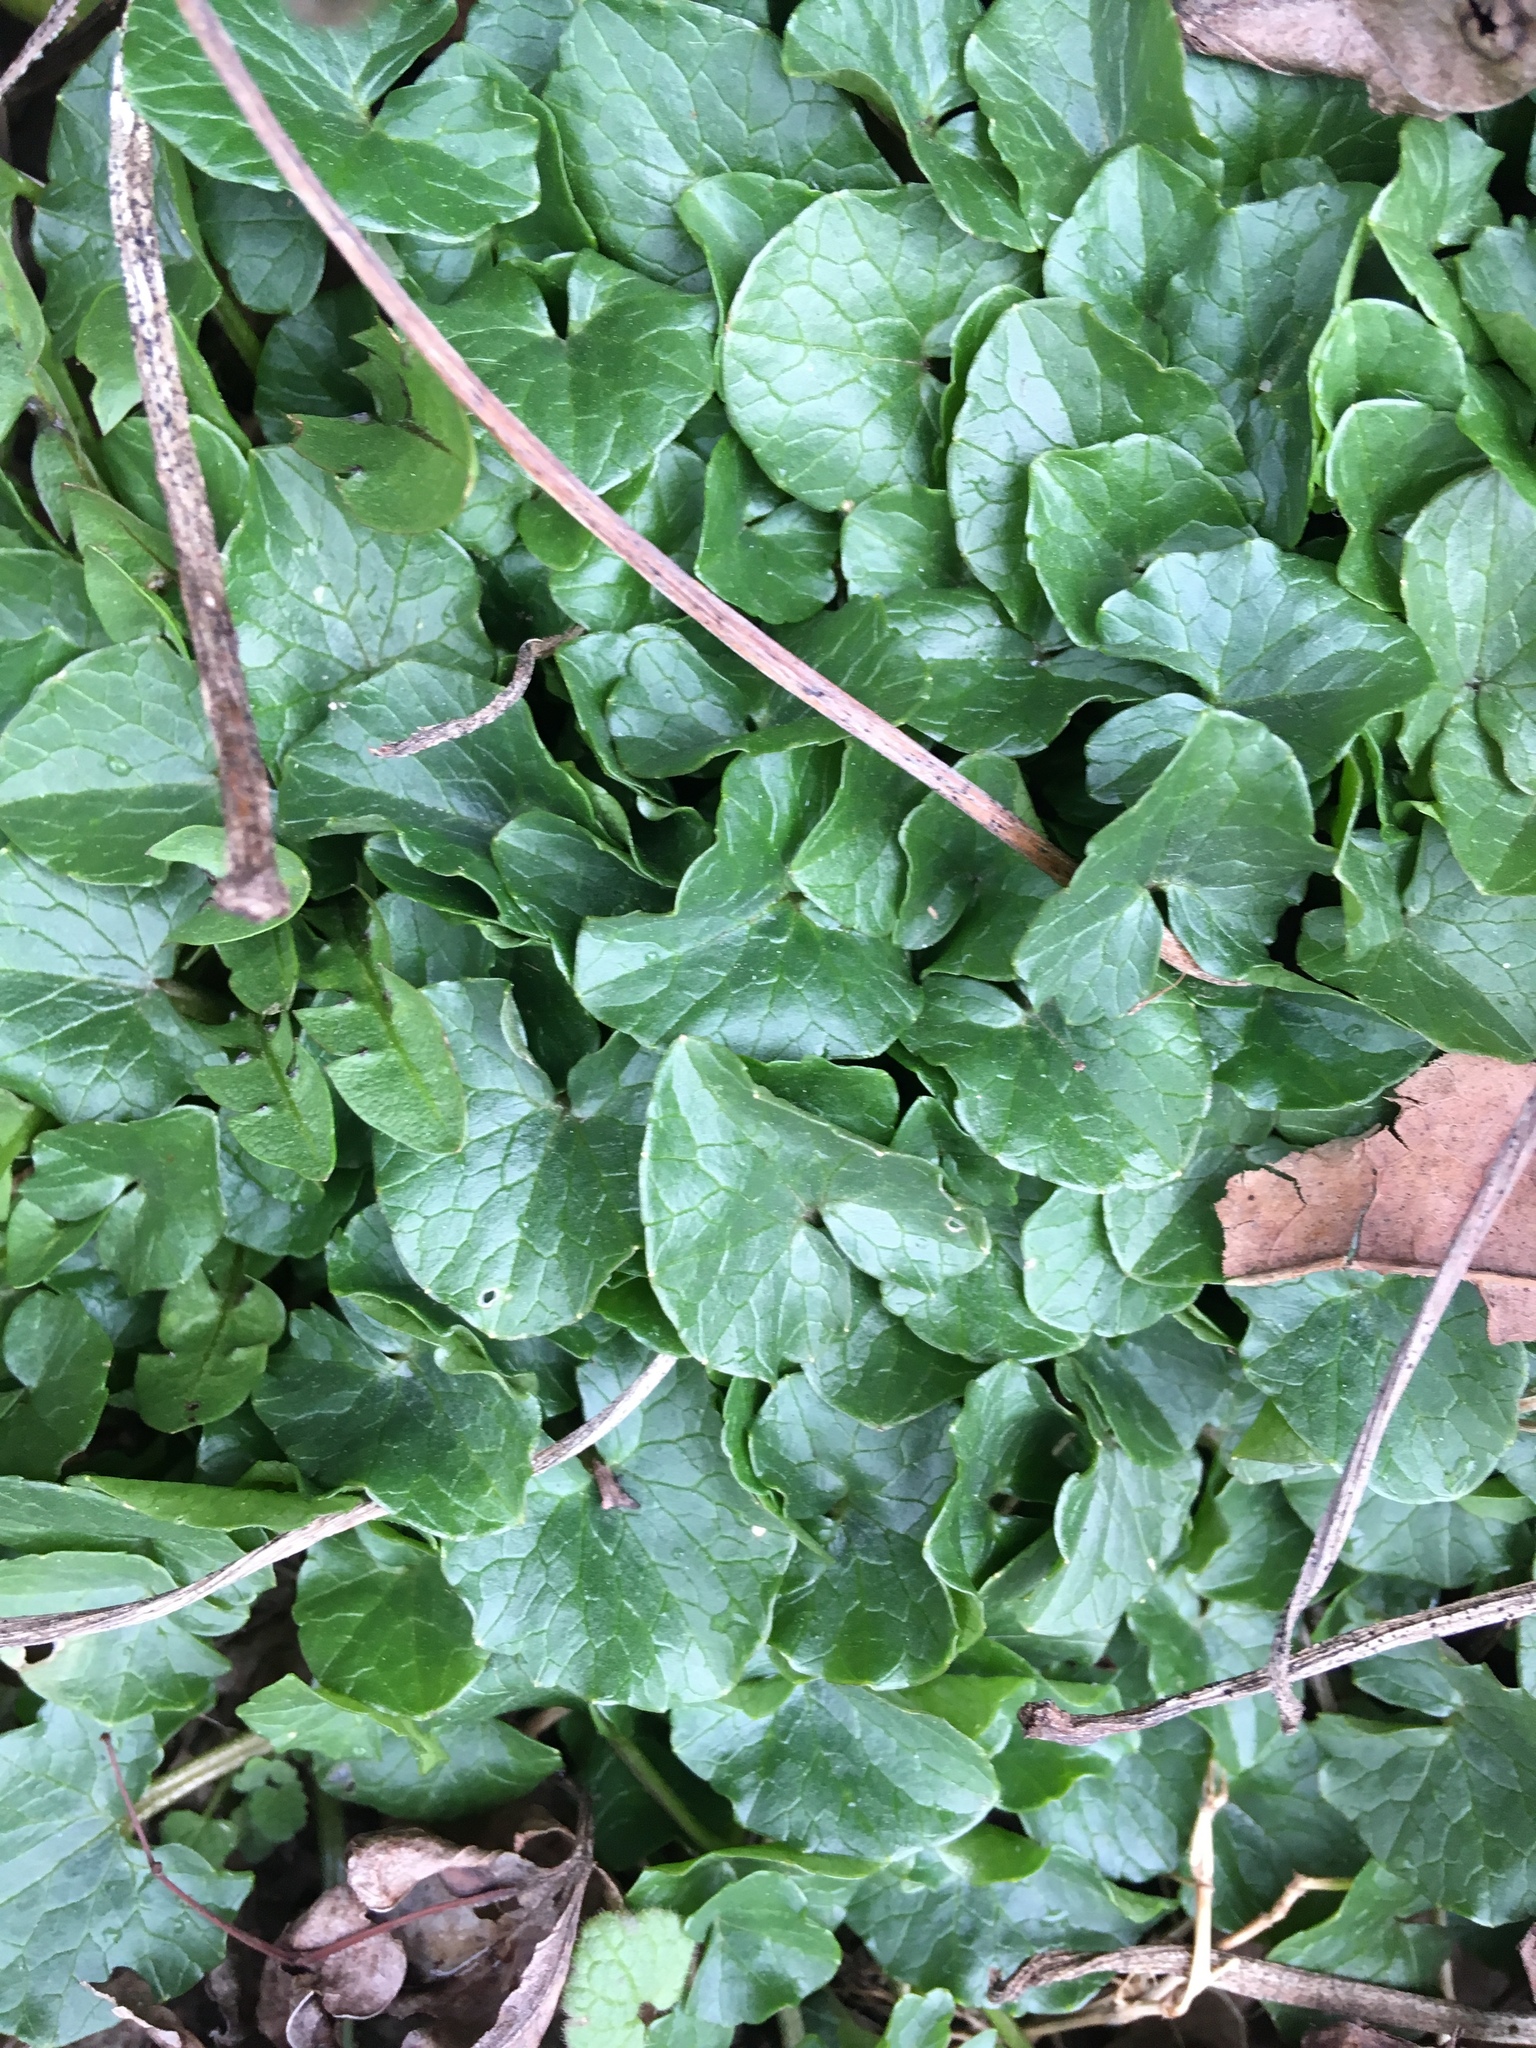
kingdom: Plantae
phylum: Tracheophyta
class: Magnoliopsida
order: Ranunculales
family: Ranunculaceae
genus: Ficaria
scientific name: Ficaria verna
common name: Lesser celandine
